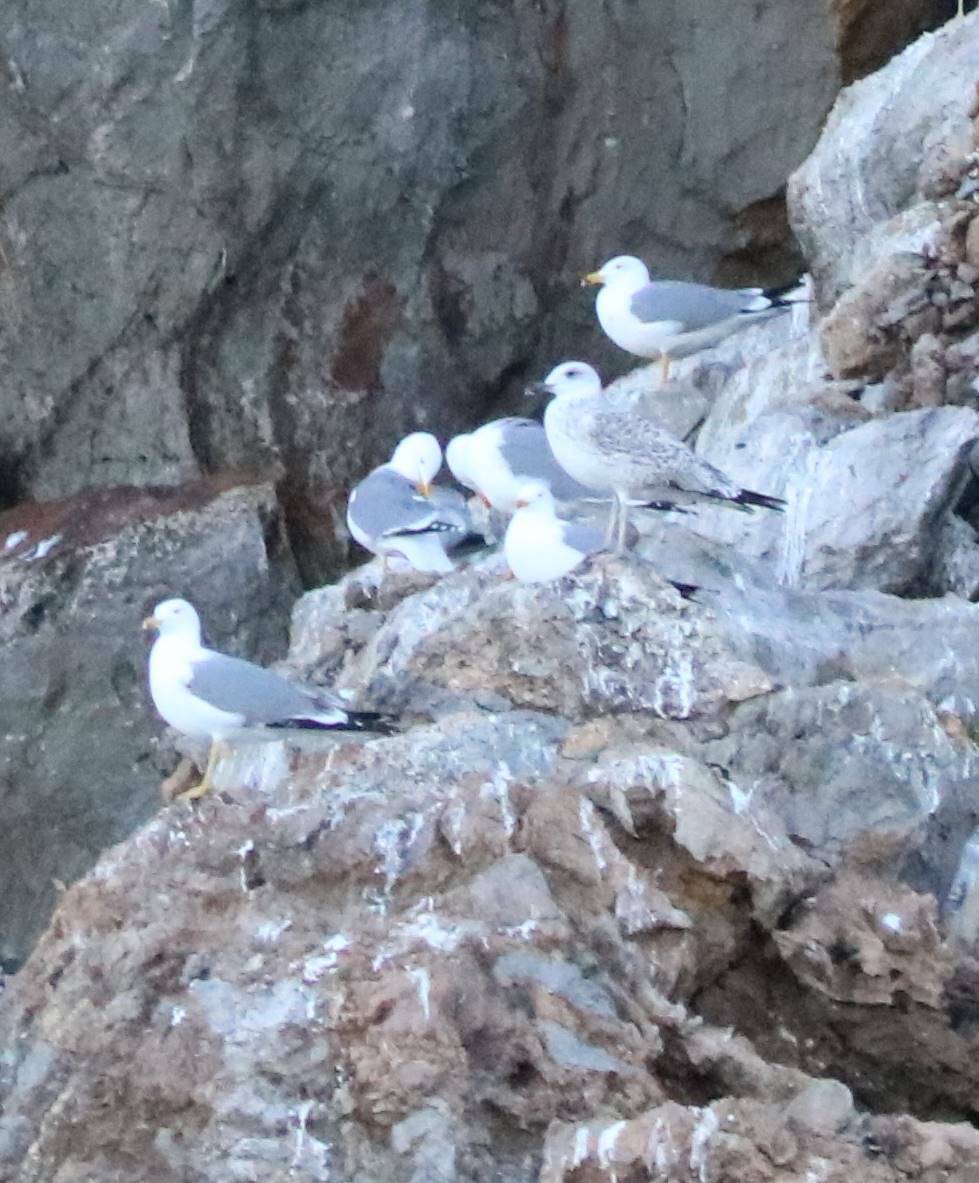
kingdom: Animalia
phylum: Chordata
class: Aves
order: Charadriiformes
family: Laridae
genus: Larus
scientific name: Larus michahellis
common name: Yellow-legged gull
